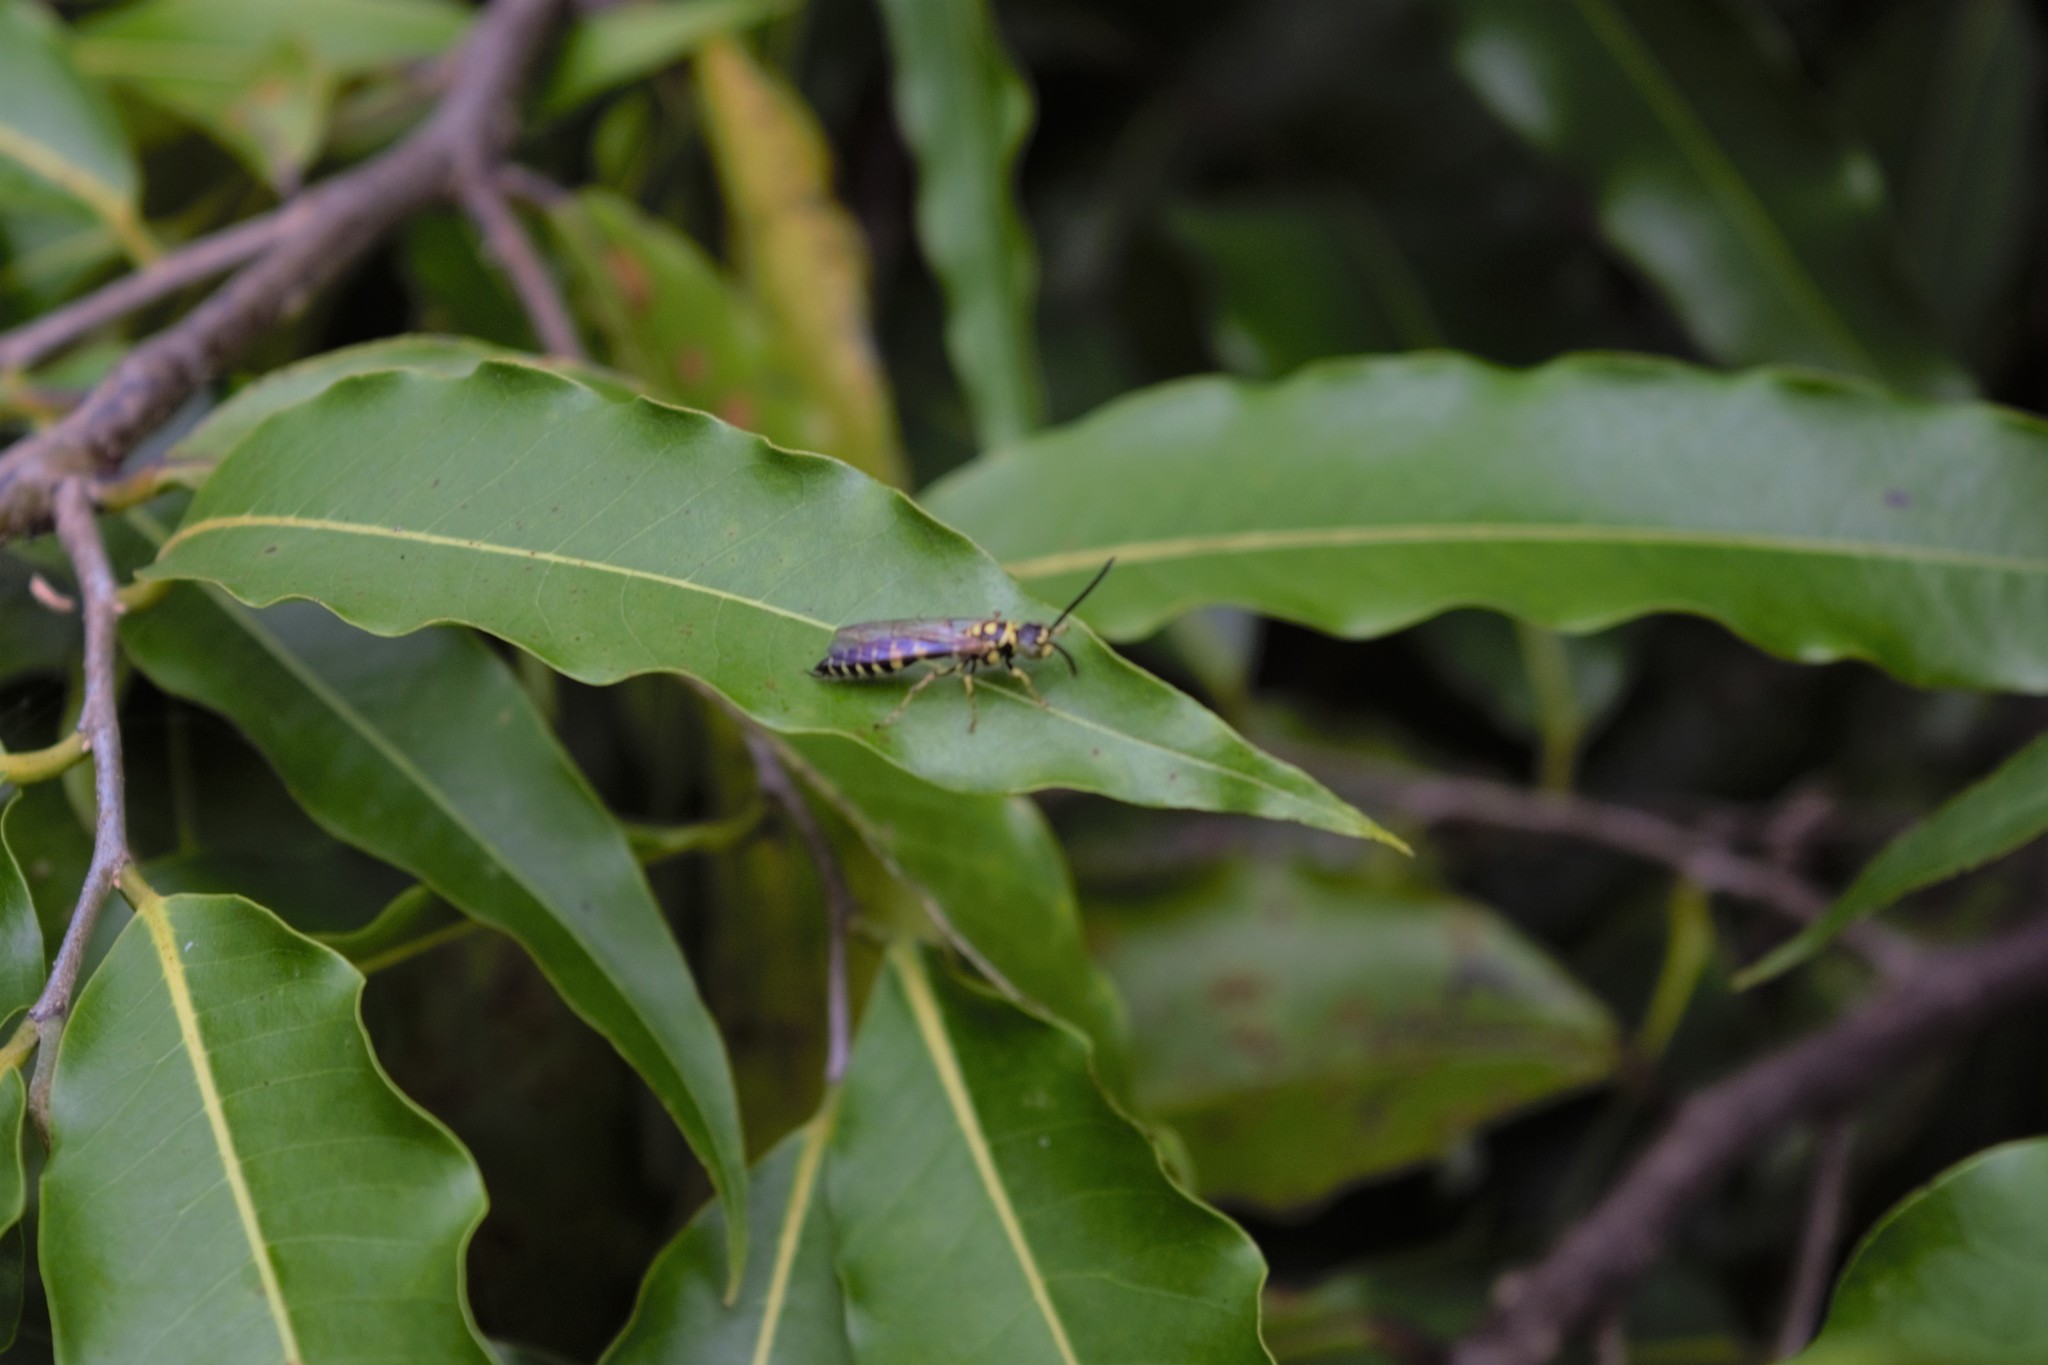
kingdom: Animalia
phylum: Arthropoda
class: Insecta
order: Hymenoptera
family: Tiphiidae
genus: Myzinum
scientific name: Myzinum
